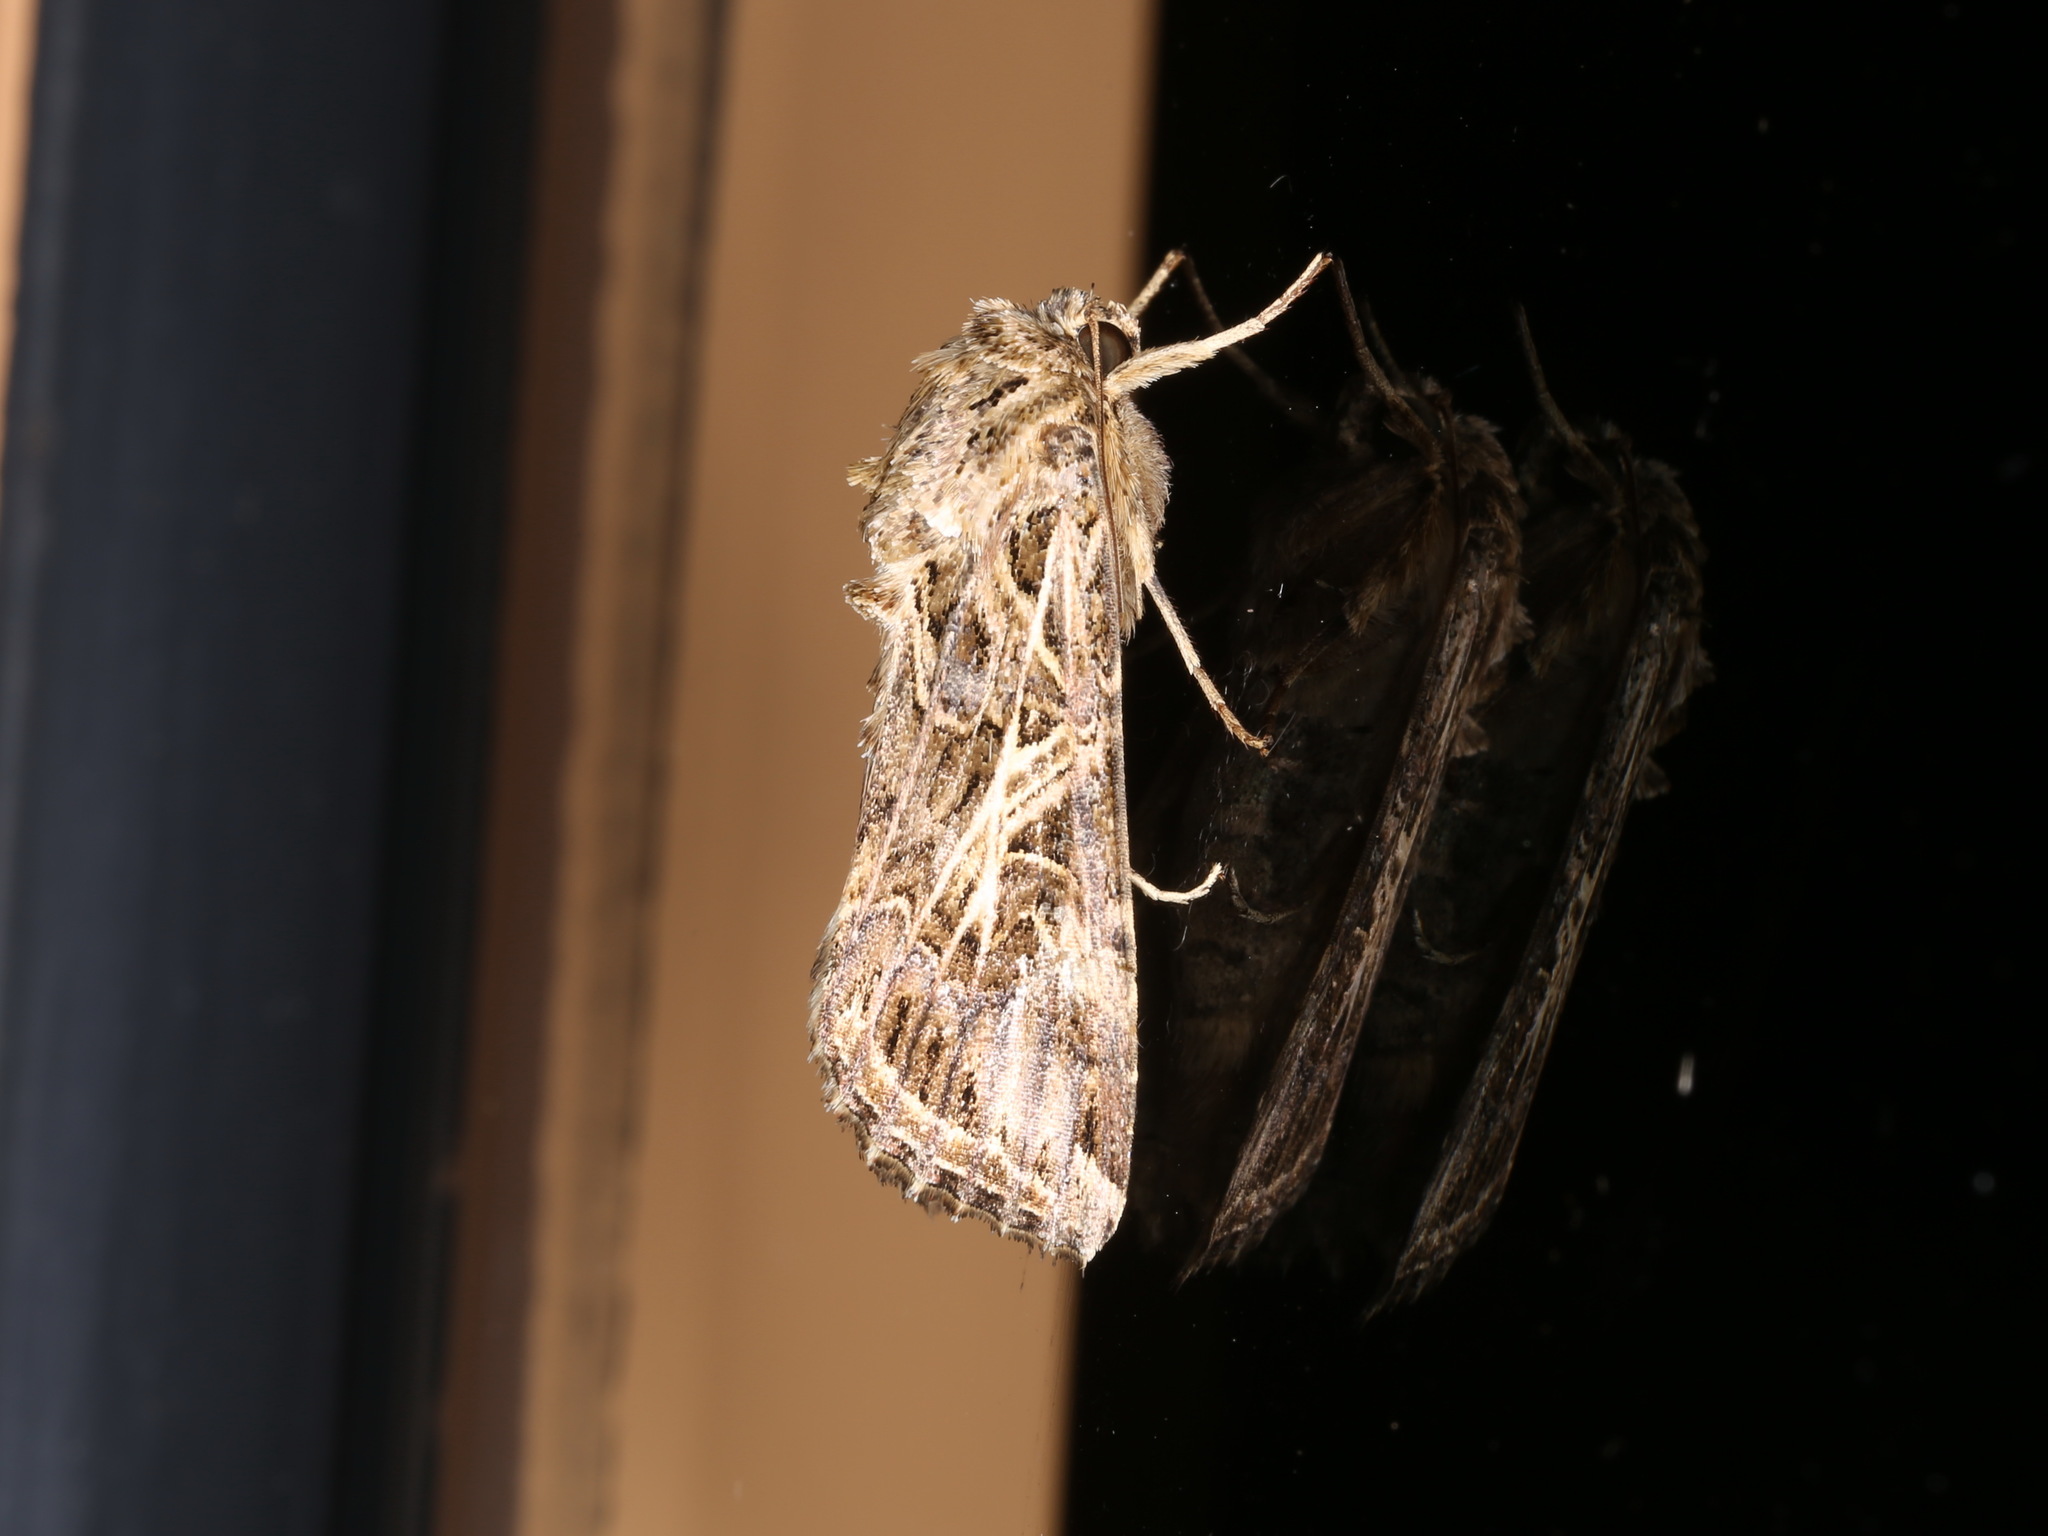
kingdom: Animalia
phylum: Arthropoda
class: Insecta
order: Lepidoptera
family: Noctuidae
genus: Spodoptera
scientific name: Spodoptera litura
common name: Asian cotton leafworm
